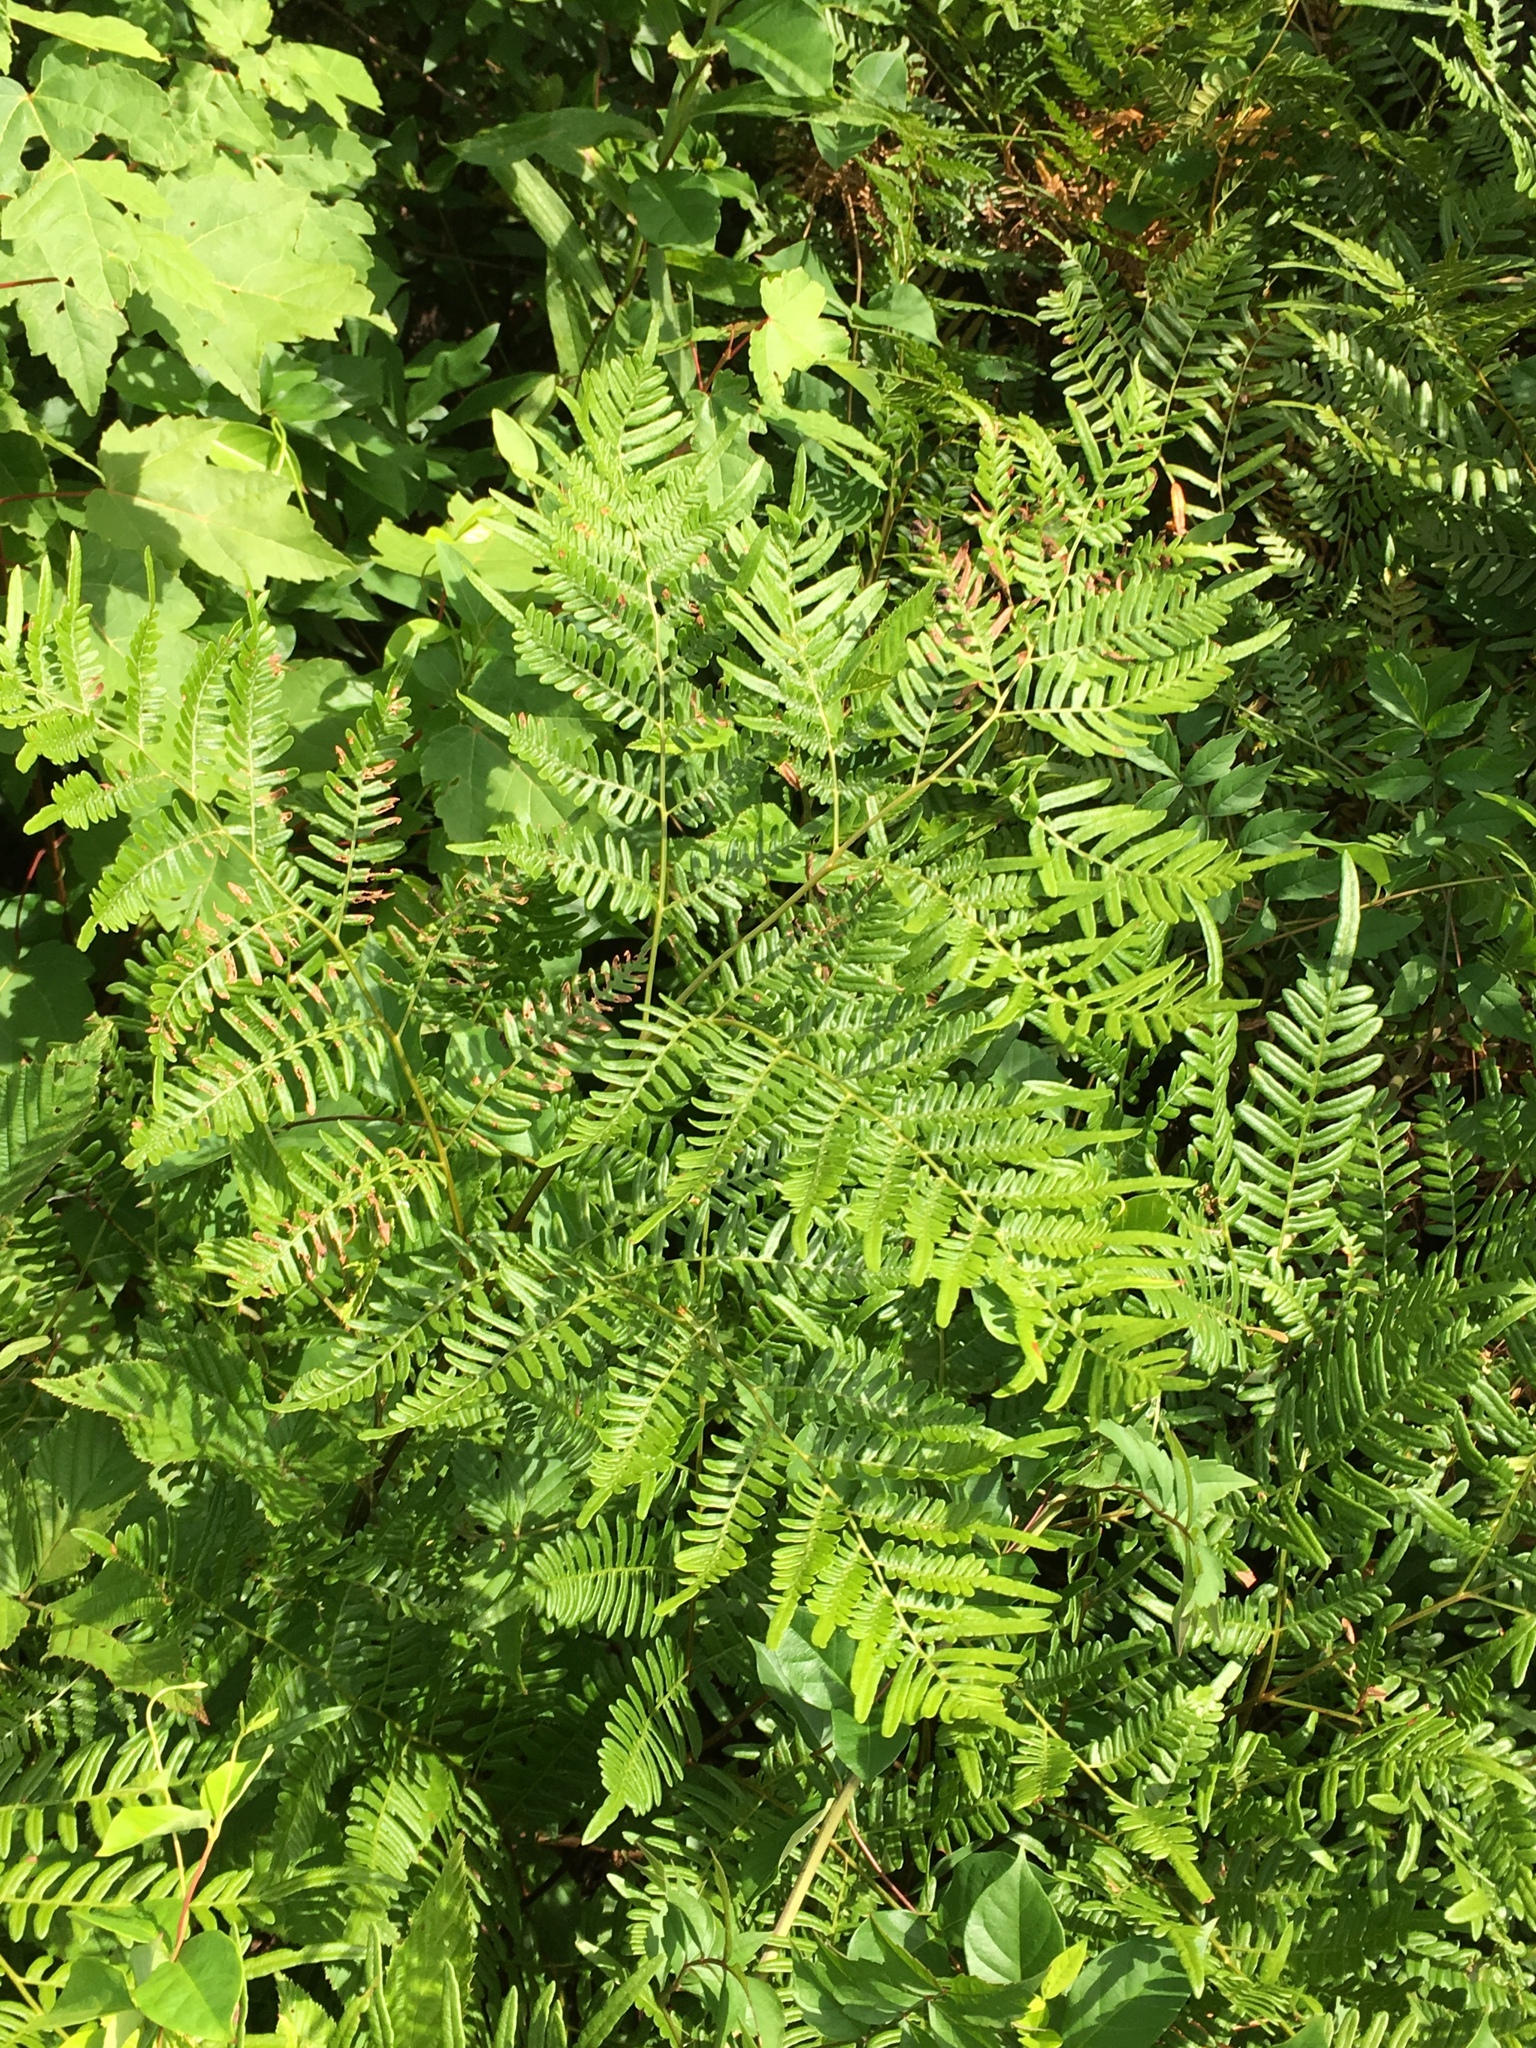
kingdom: Plantae
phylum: Tracheophyta
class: Polypodiopsida
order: Polypodiales
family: Dennstaedtiaceae
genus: Pteridium
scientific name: Pteridium
